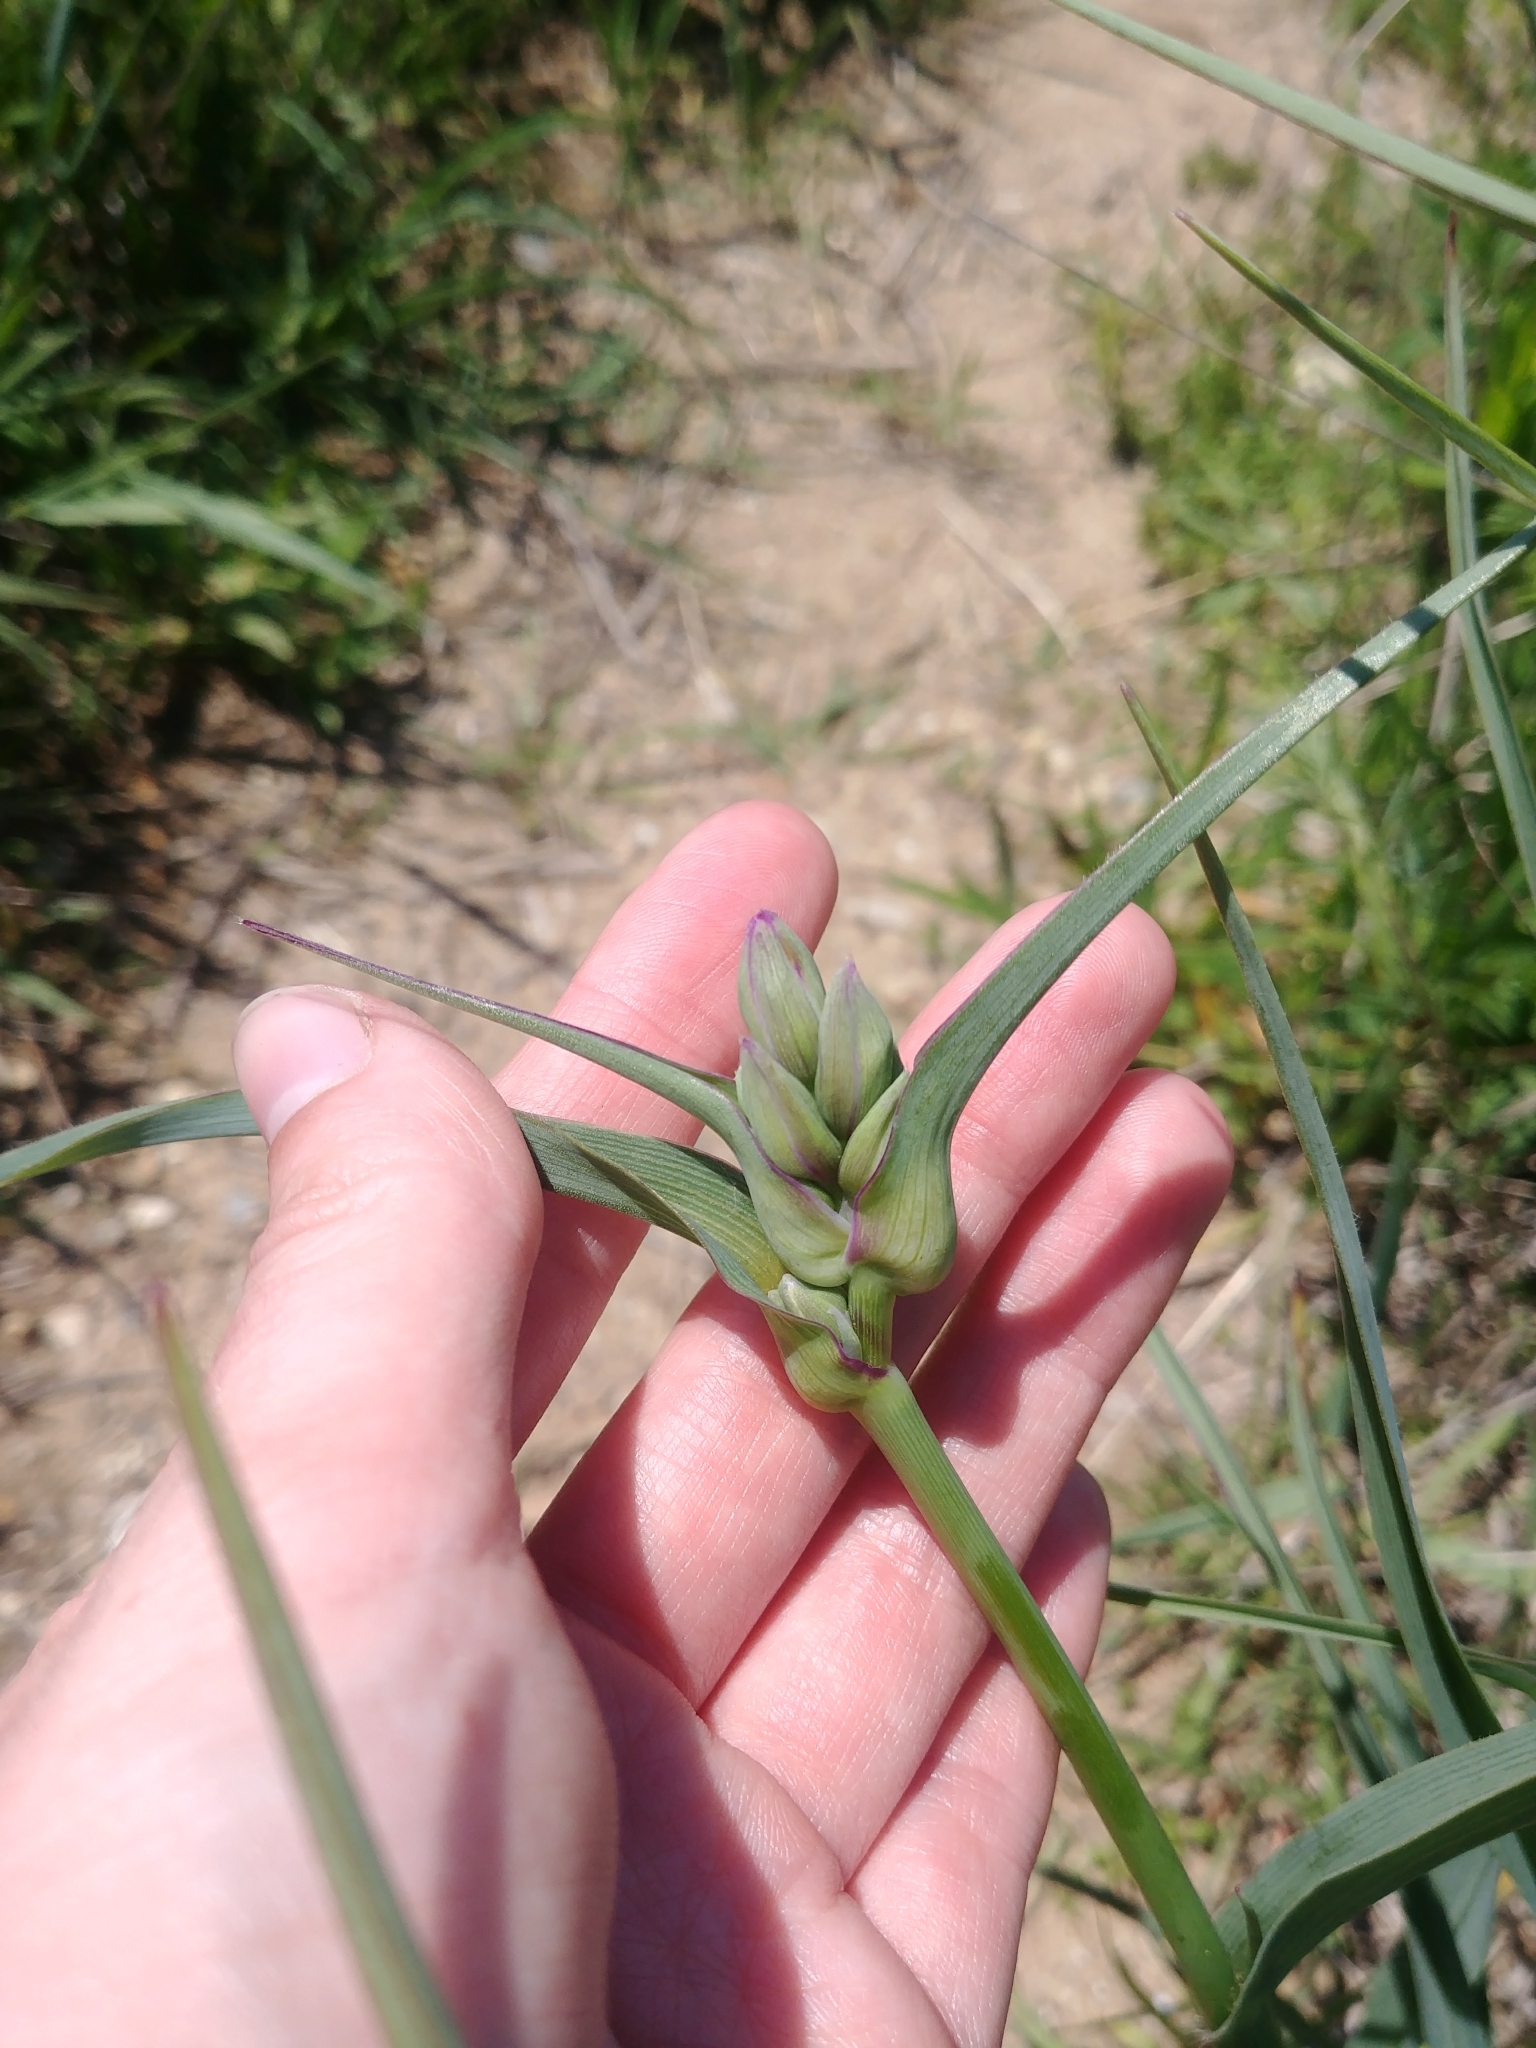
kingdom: Plantae
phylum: Tracheophyta
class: Liliopsida
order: Commelinales
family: Commelinaceae
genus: Tradescantia
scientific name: Tradescantia ohiensis
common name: Ohio spiderwort
